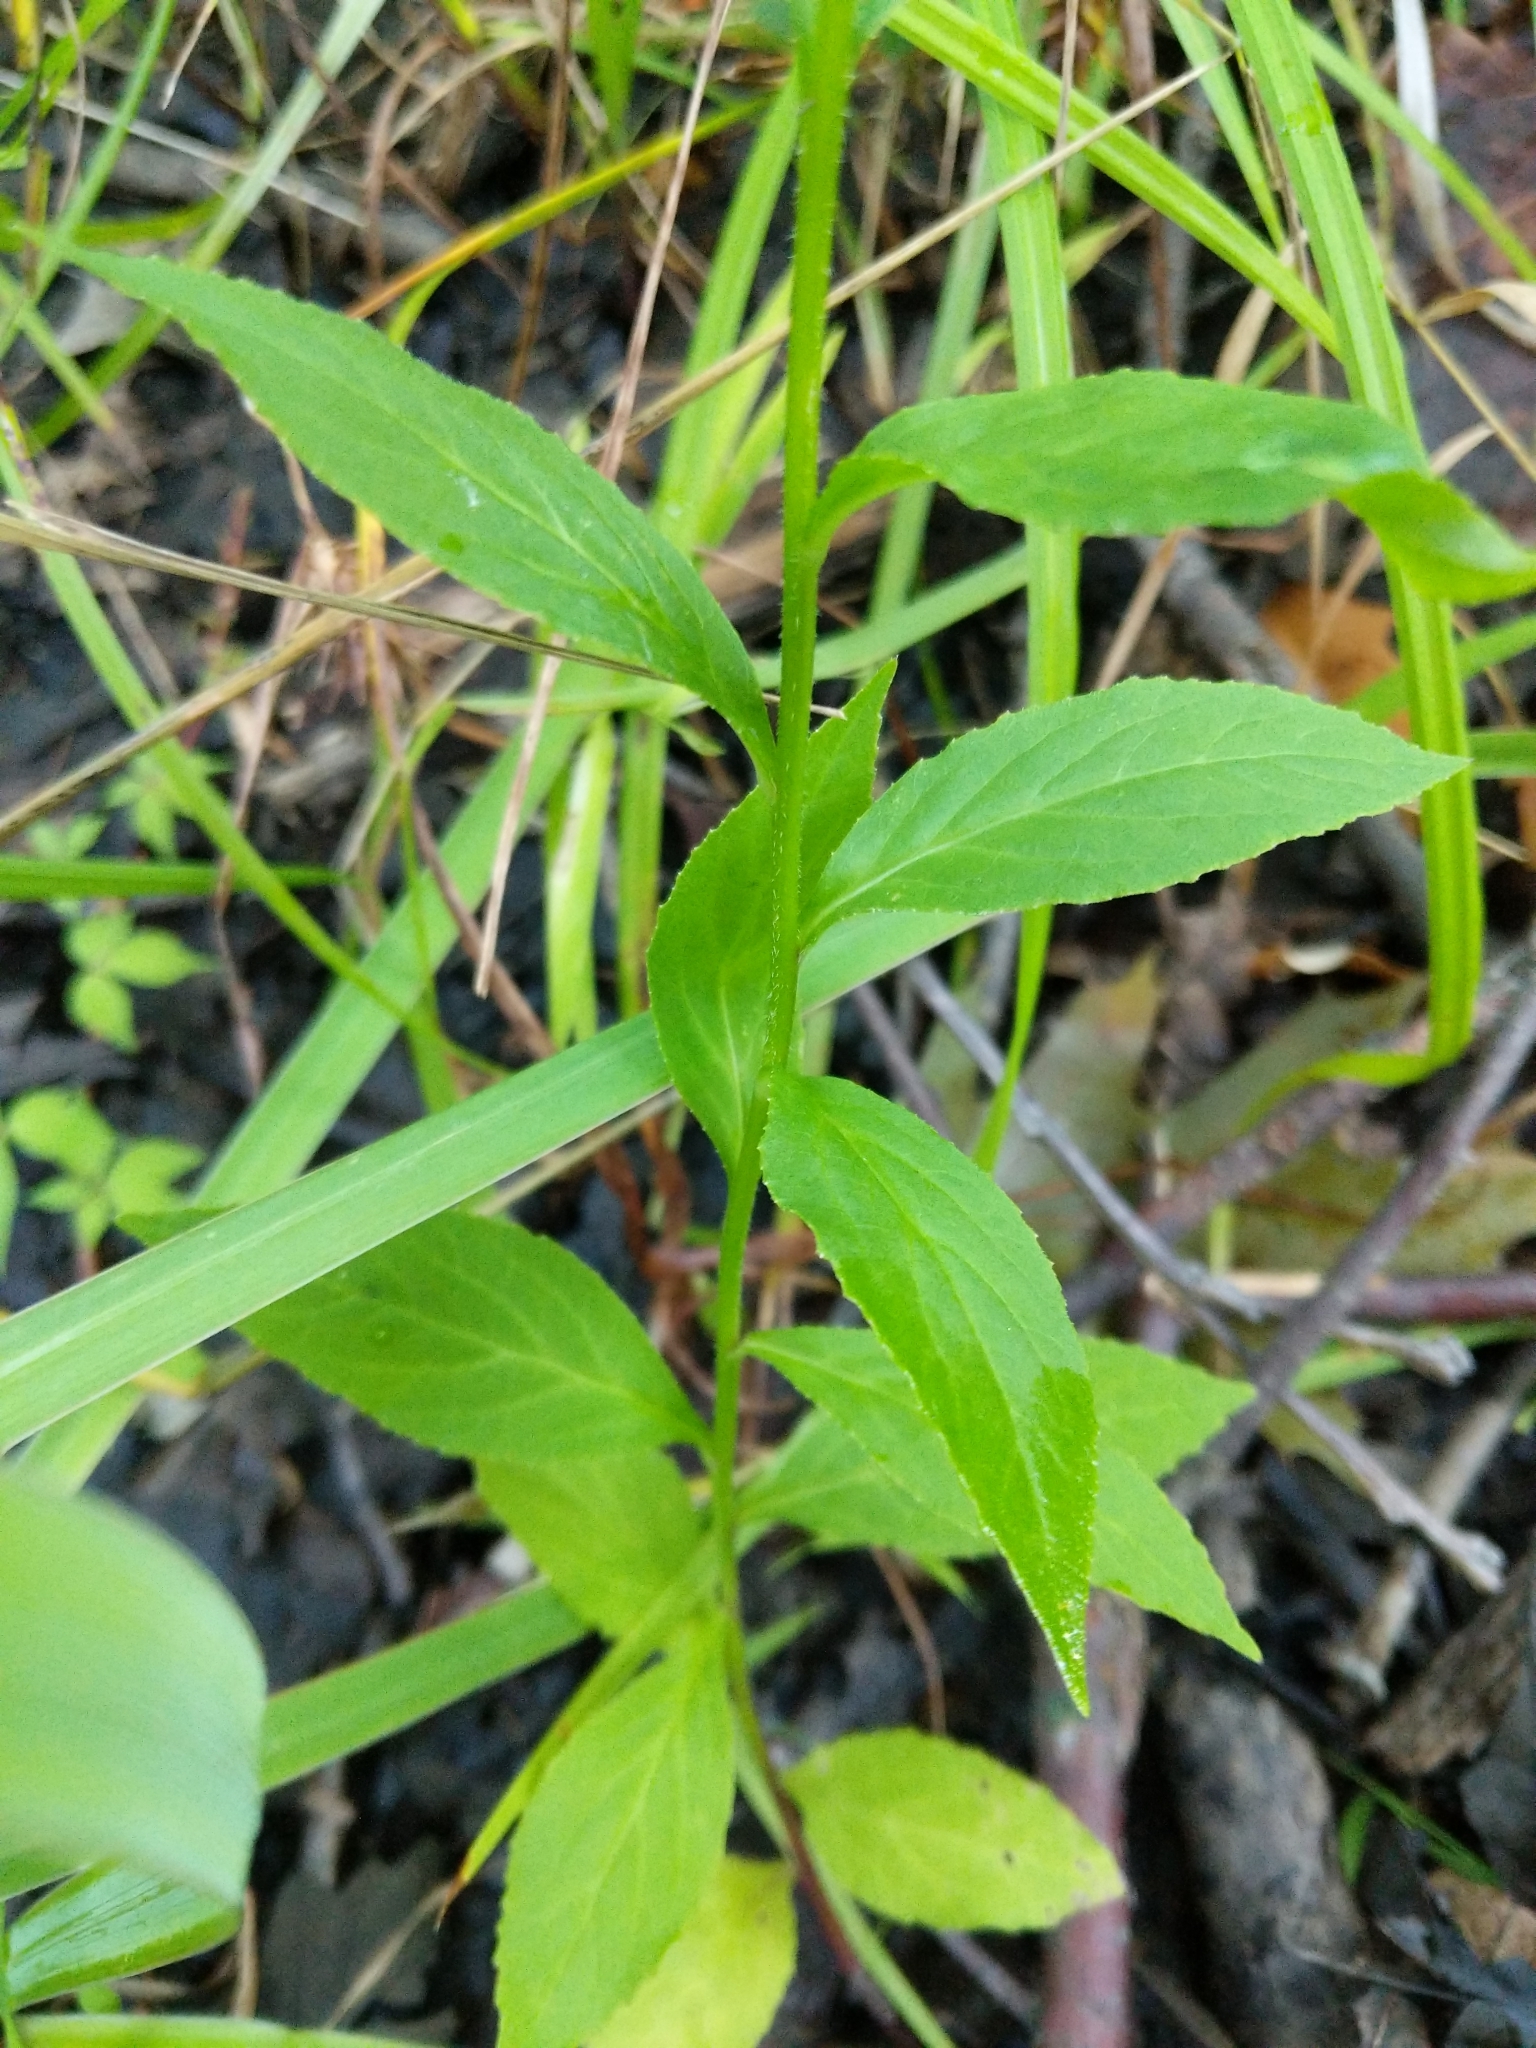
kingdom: Plantae
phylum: Tracheophyta
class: Magnoliopsida
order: Asterales
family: Campanulaceae
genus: Lobelia
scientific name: Lobelia speciosa
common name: Showy lobelia
